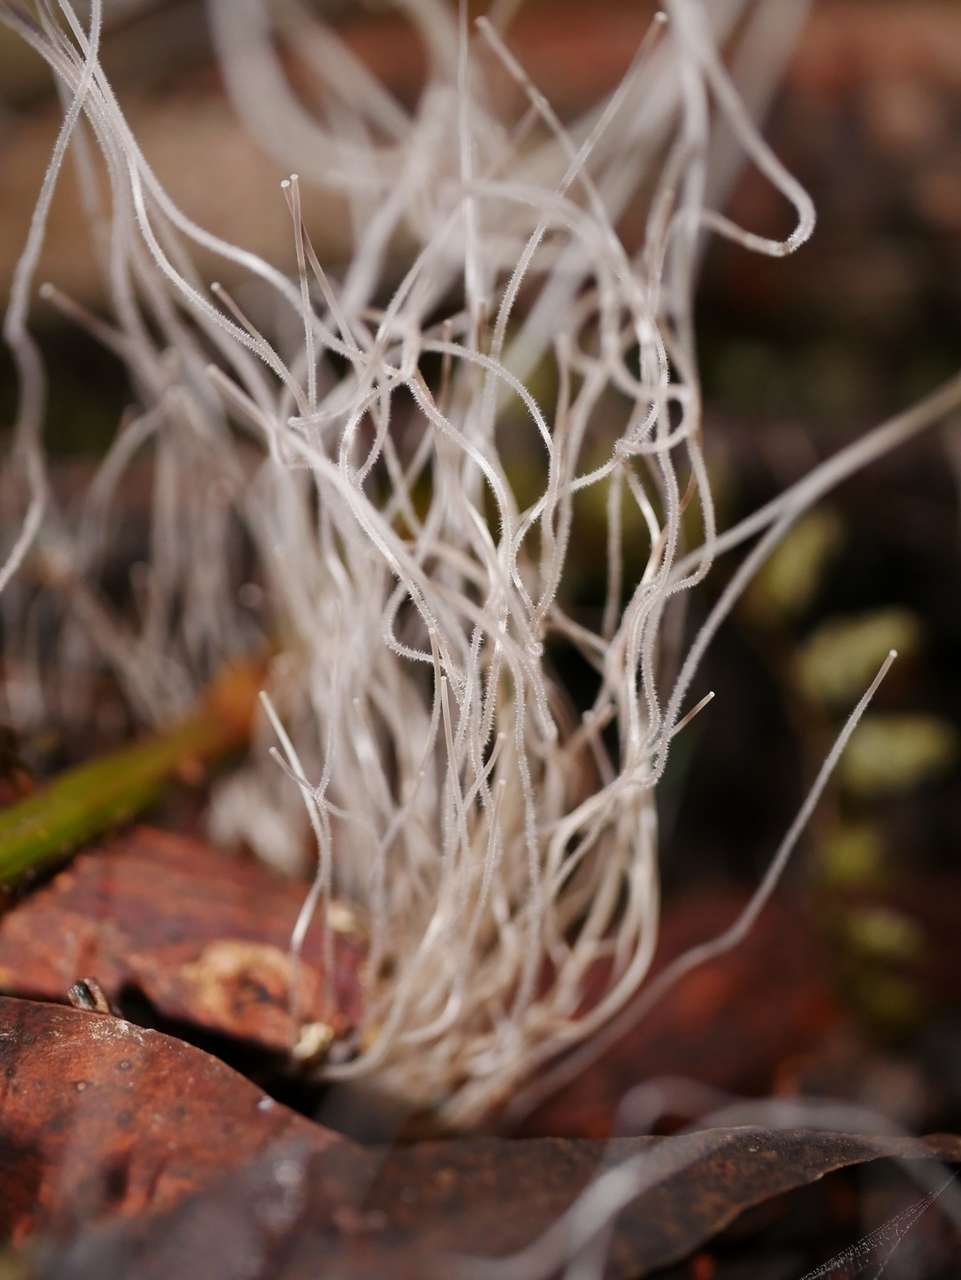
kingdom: Fungi
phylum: Basidiomycota
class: Agaricomycetes
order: Agaricales
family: Mycenaceae
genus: Mycena
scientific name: Mycena cystidiosa
